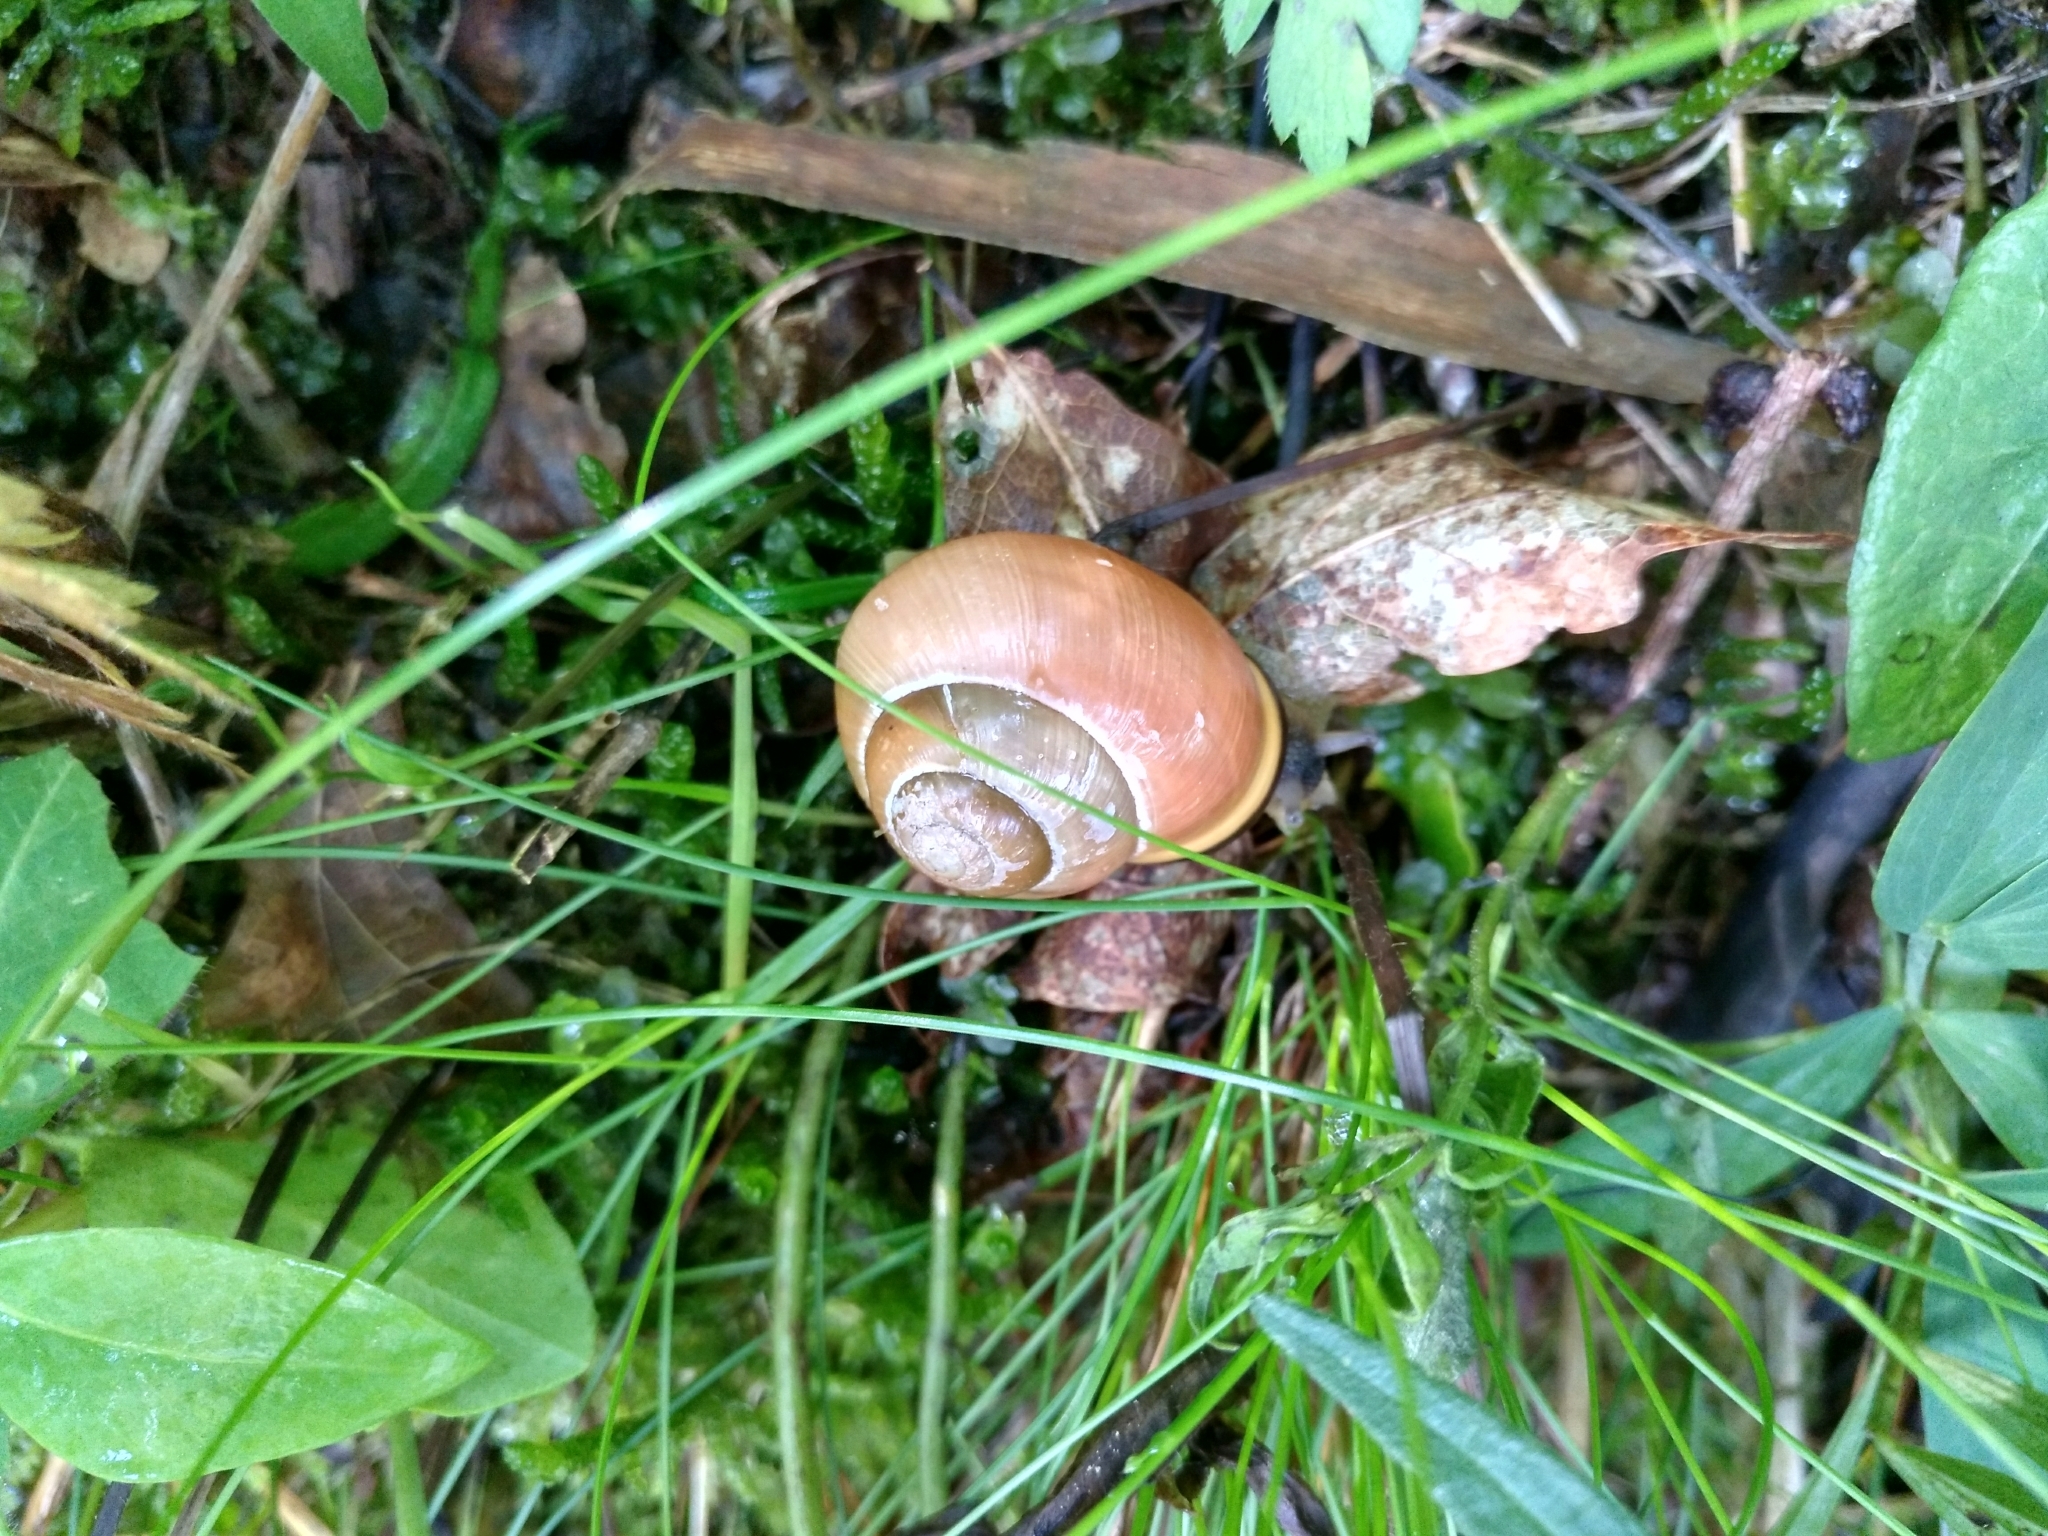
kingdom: Animalia
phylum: Mollusca
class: Gastropoda
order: Stylommatophora
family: Helicidae
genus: Cepaea
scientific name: Cepaea nemoralis
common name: Grovesnail
